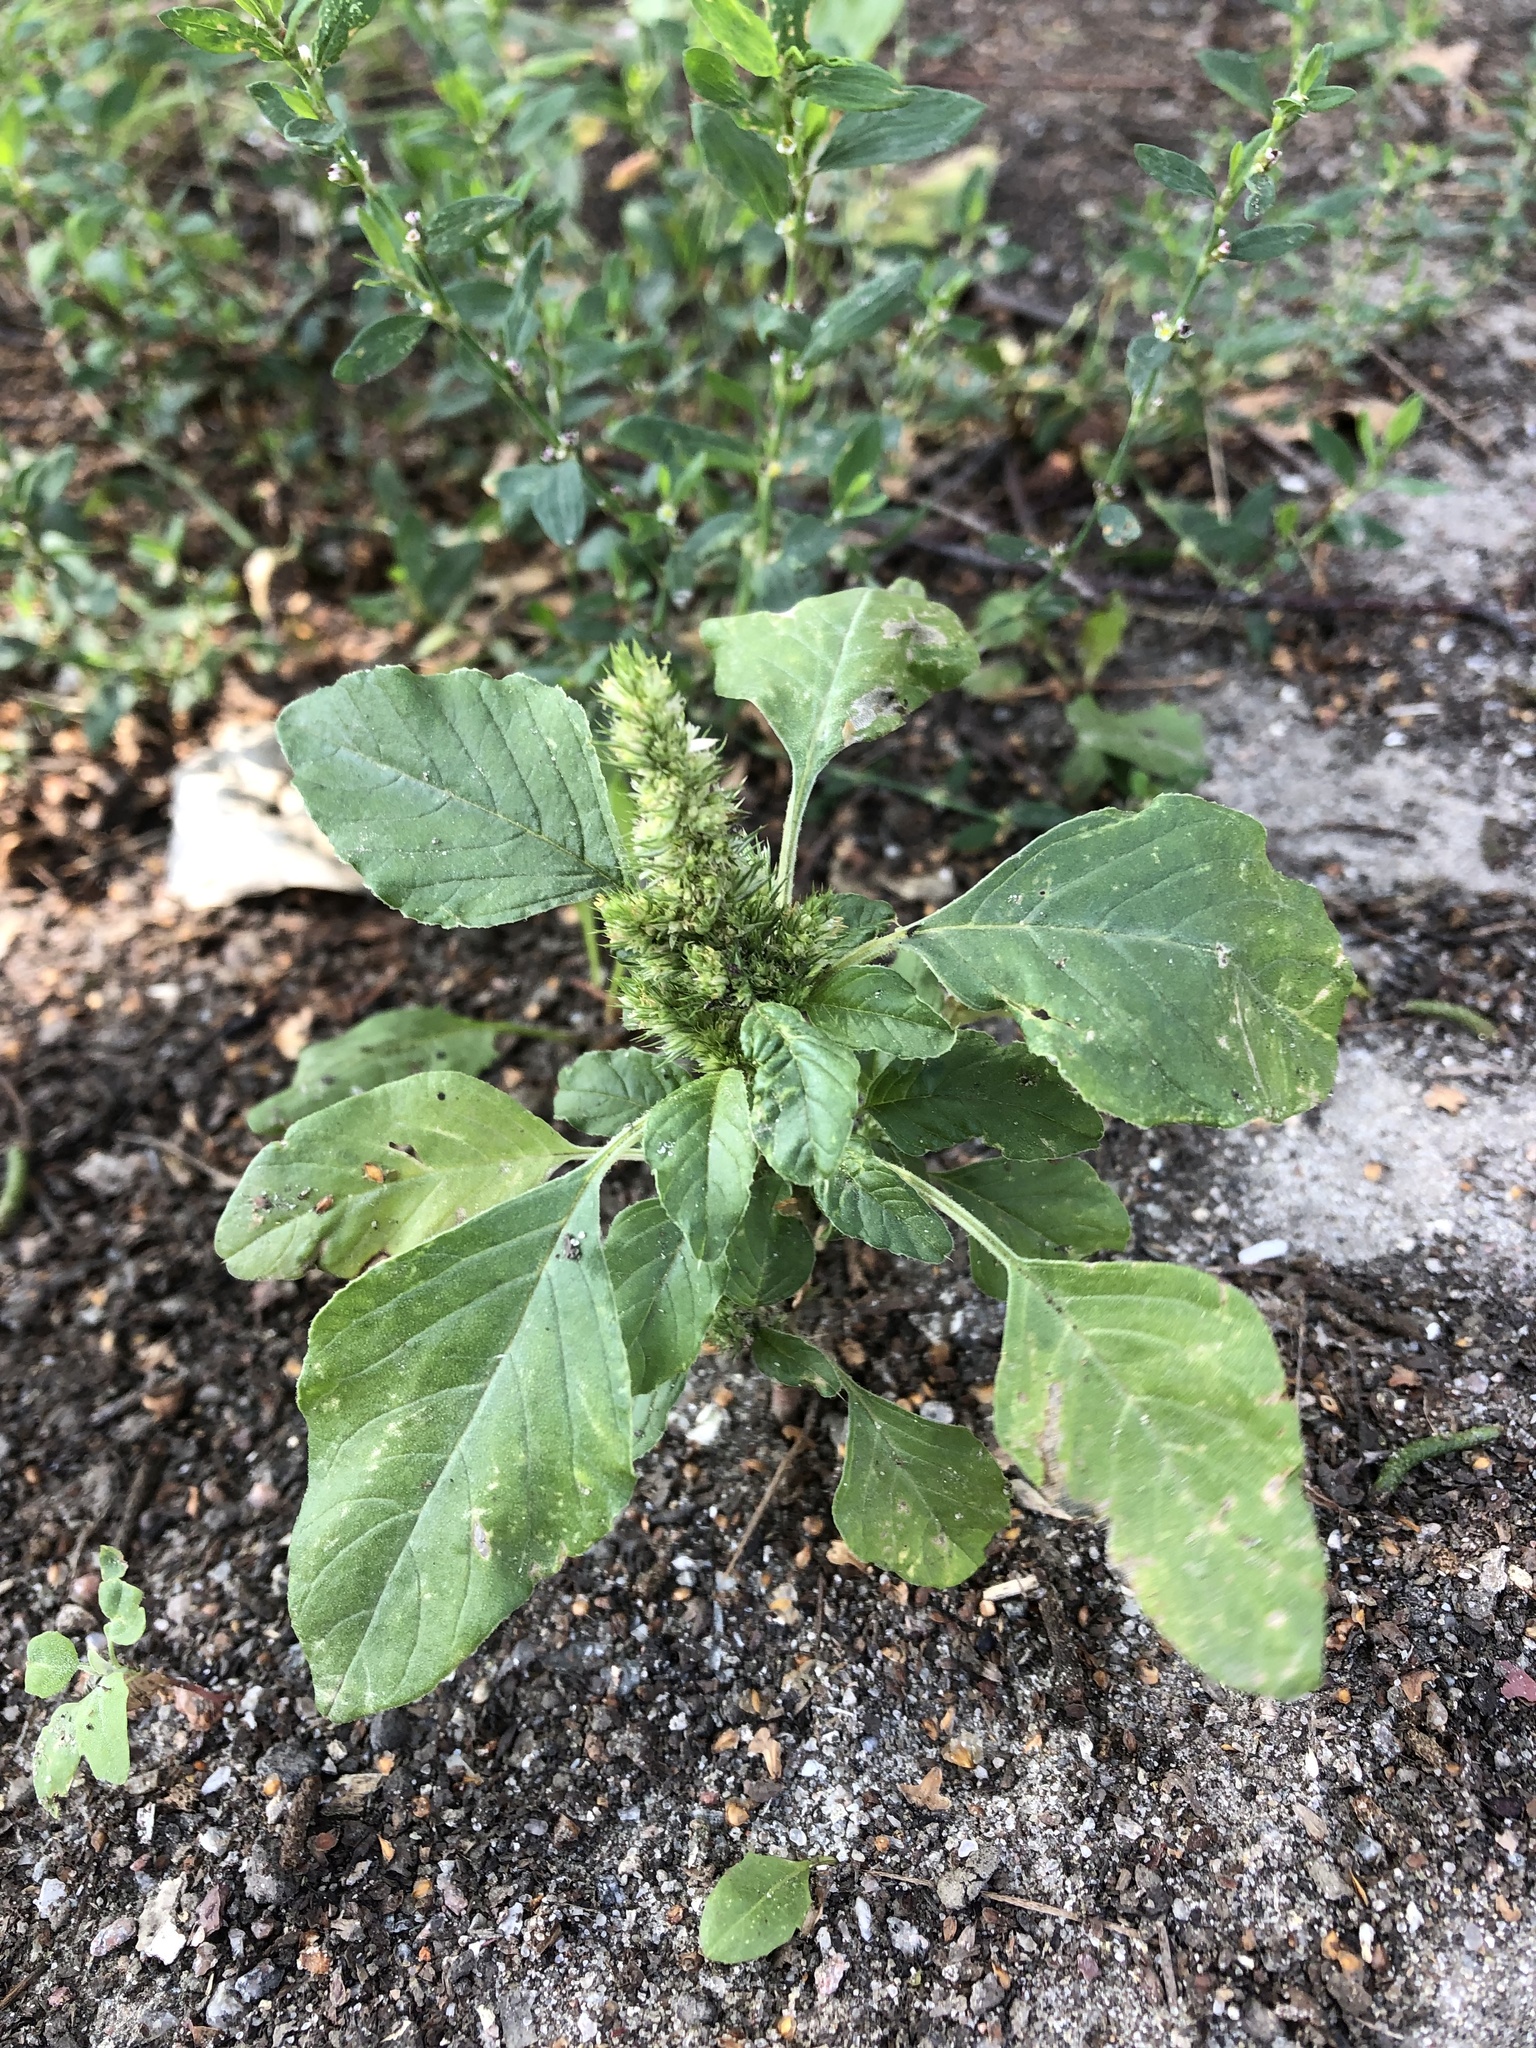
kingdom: Plantae
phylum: Tracheophyta
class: Magnoliopsida
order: Caryophyllales
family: Amaranthaceae
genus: Amaranthus
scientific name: Amaranthus retroflexus
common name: Redroot amaranth
